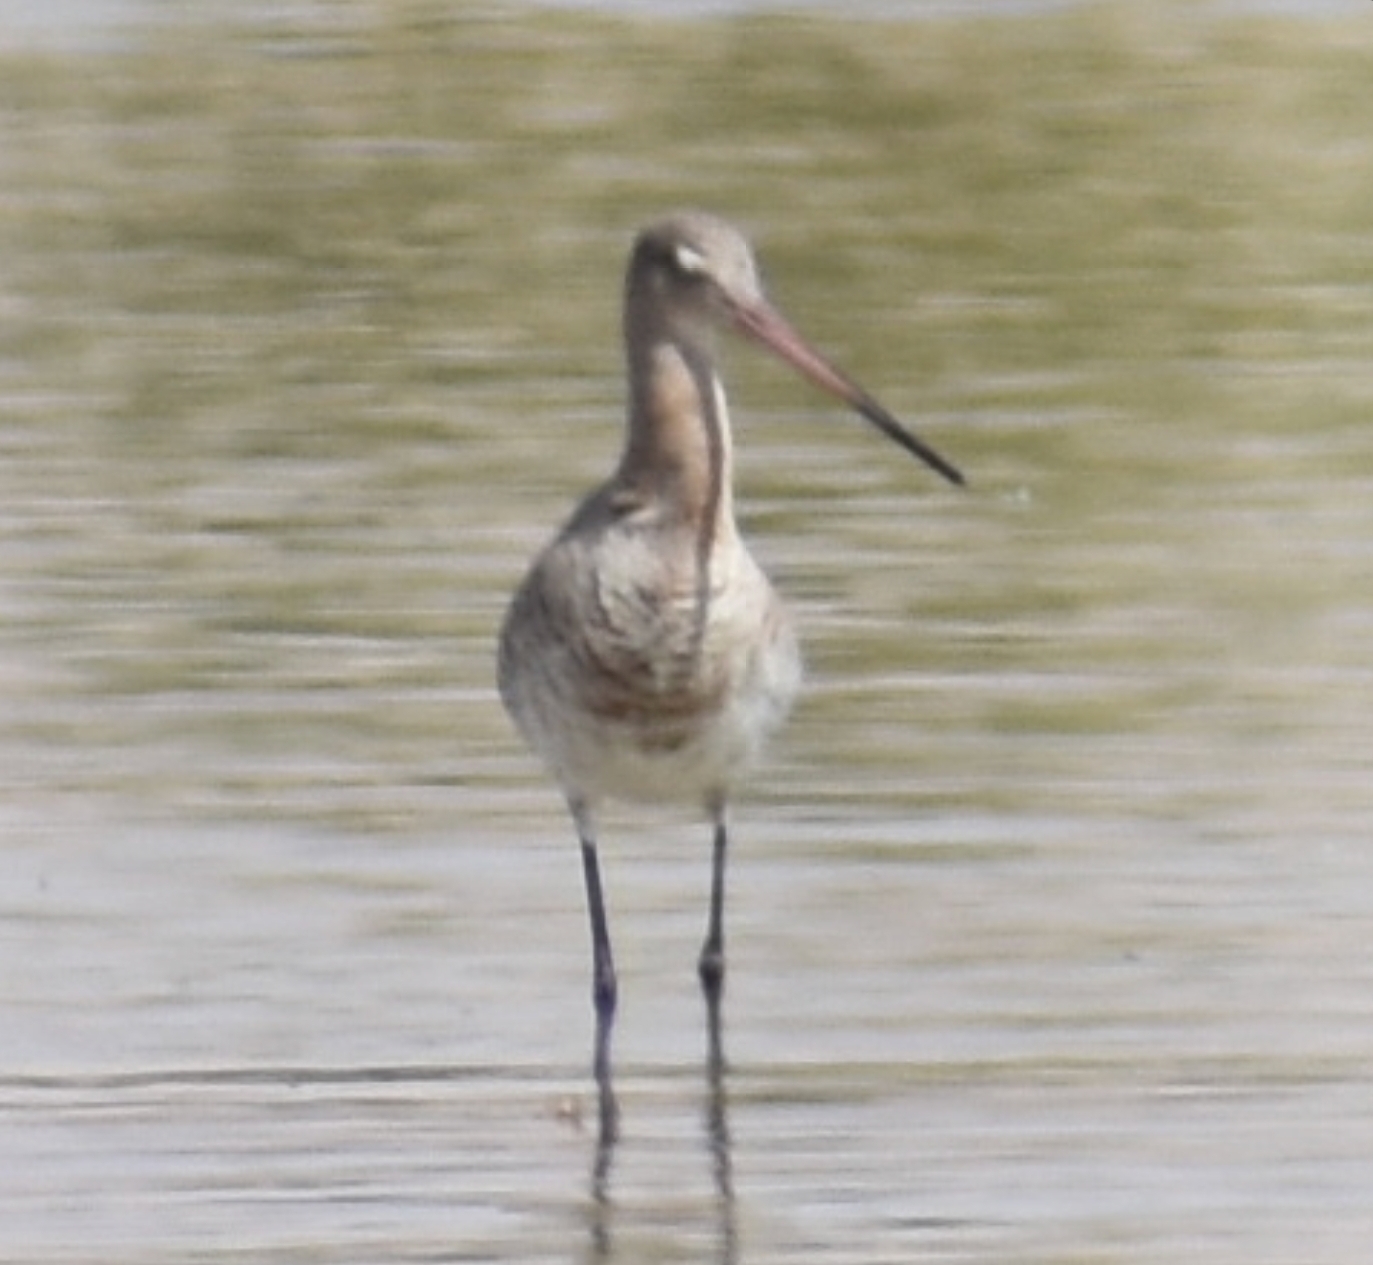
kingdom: Animalia
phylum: Chordata
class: Aves
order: Charadriiformes
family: Scolopacidae
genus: Limosa
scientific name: Limosa limosa
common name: Black-tailed godwit
